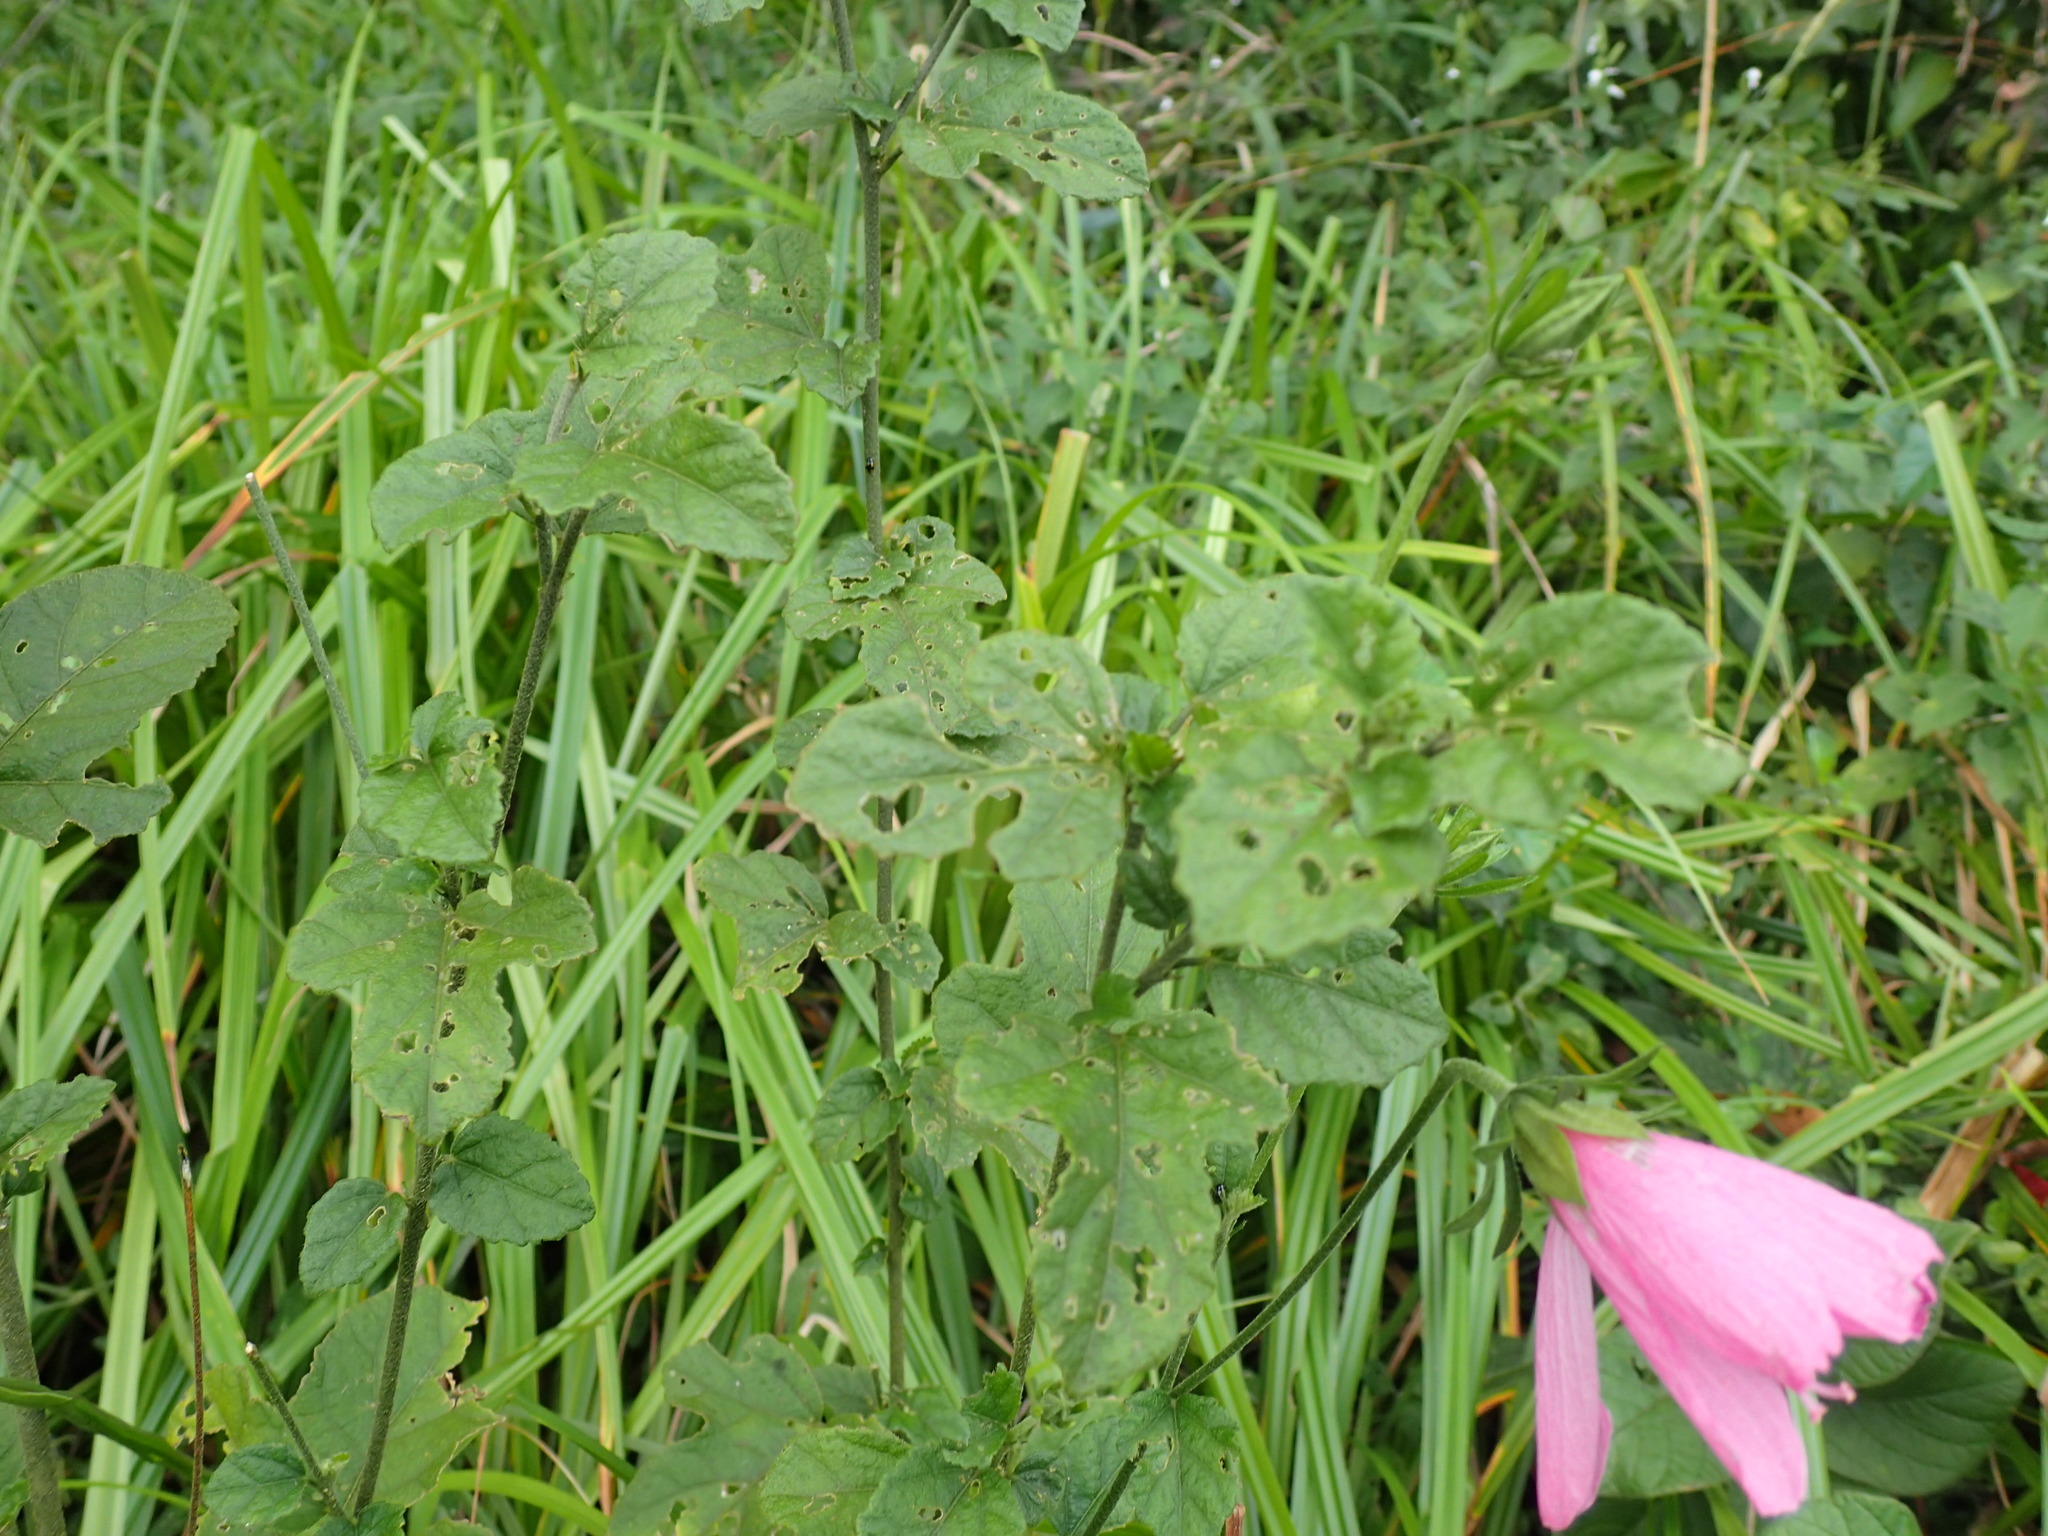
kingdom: Plantae
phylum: Tracheophyta
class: Magnoliopsida
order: Malvales
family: Malvaceae
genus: Hibiscus
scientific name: Hibiscus pedunculatus
